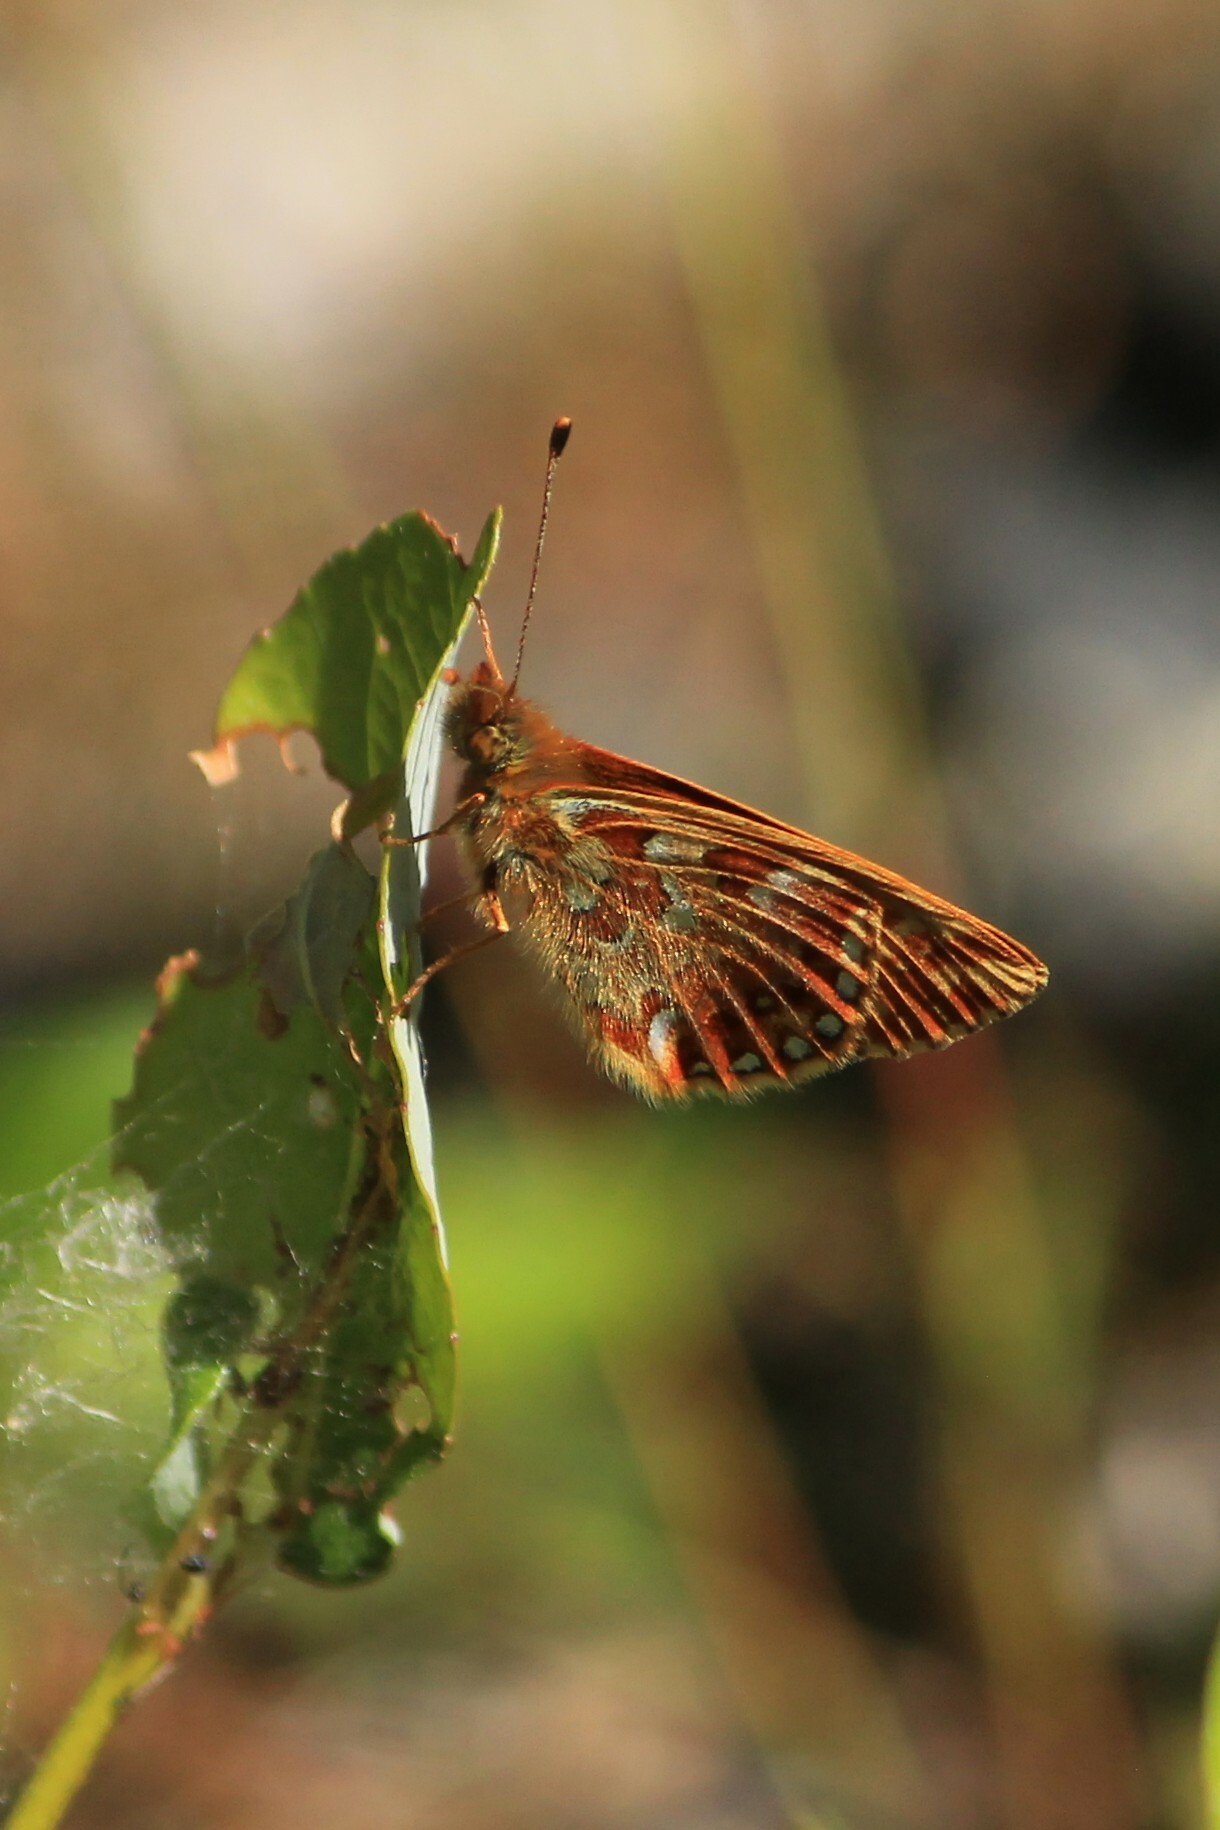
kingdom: Animalia
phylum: Arthropoda
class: Insecta
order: Lepidoptera
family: Nymphalidae
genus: Boloria
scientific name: Boloria aquilonaris
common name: Cranberry fritillary
